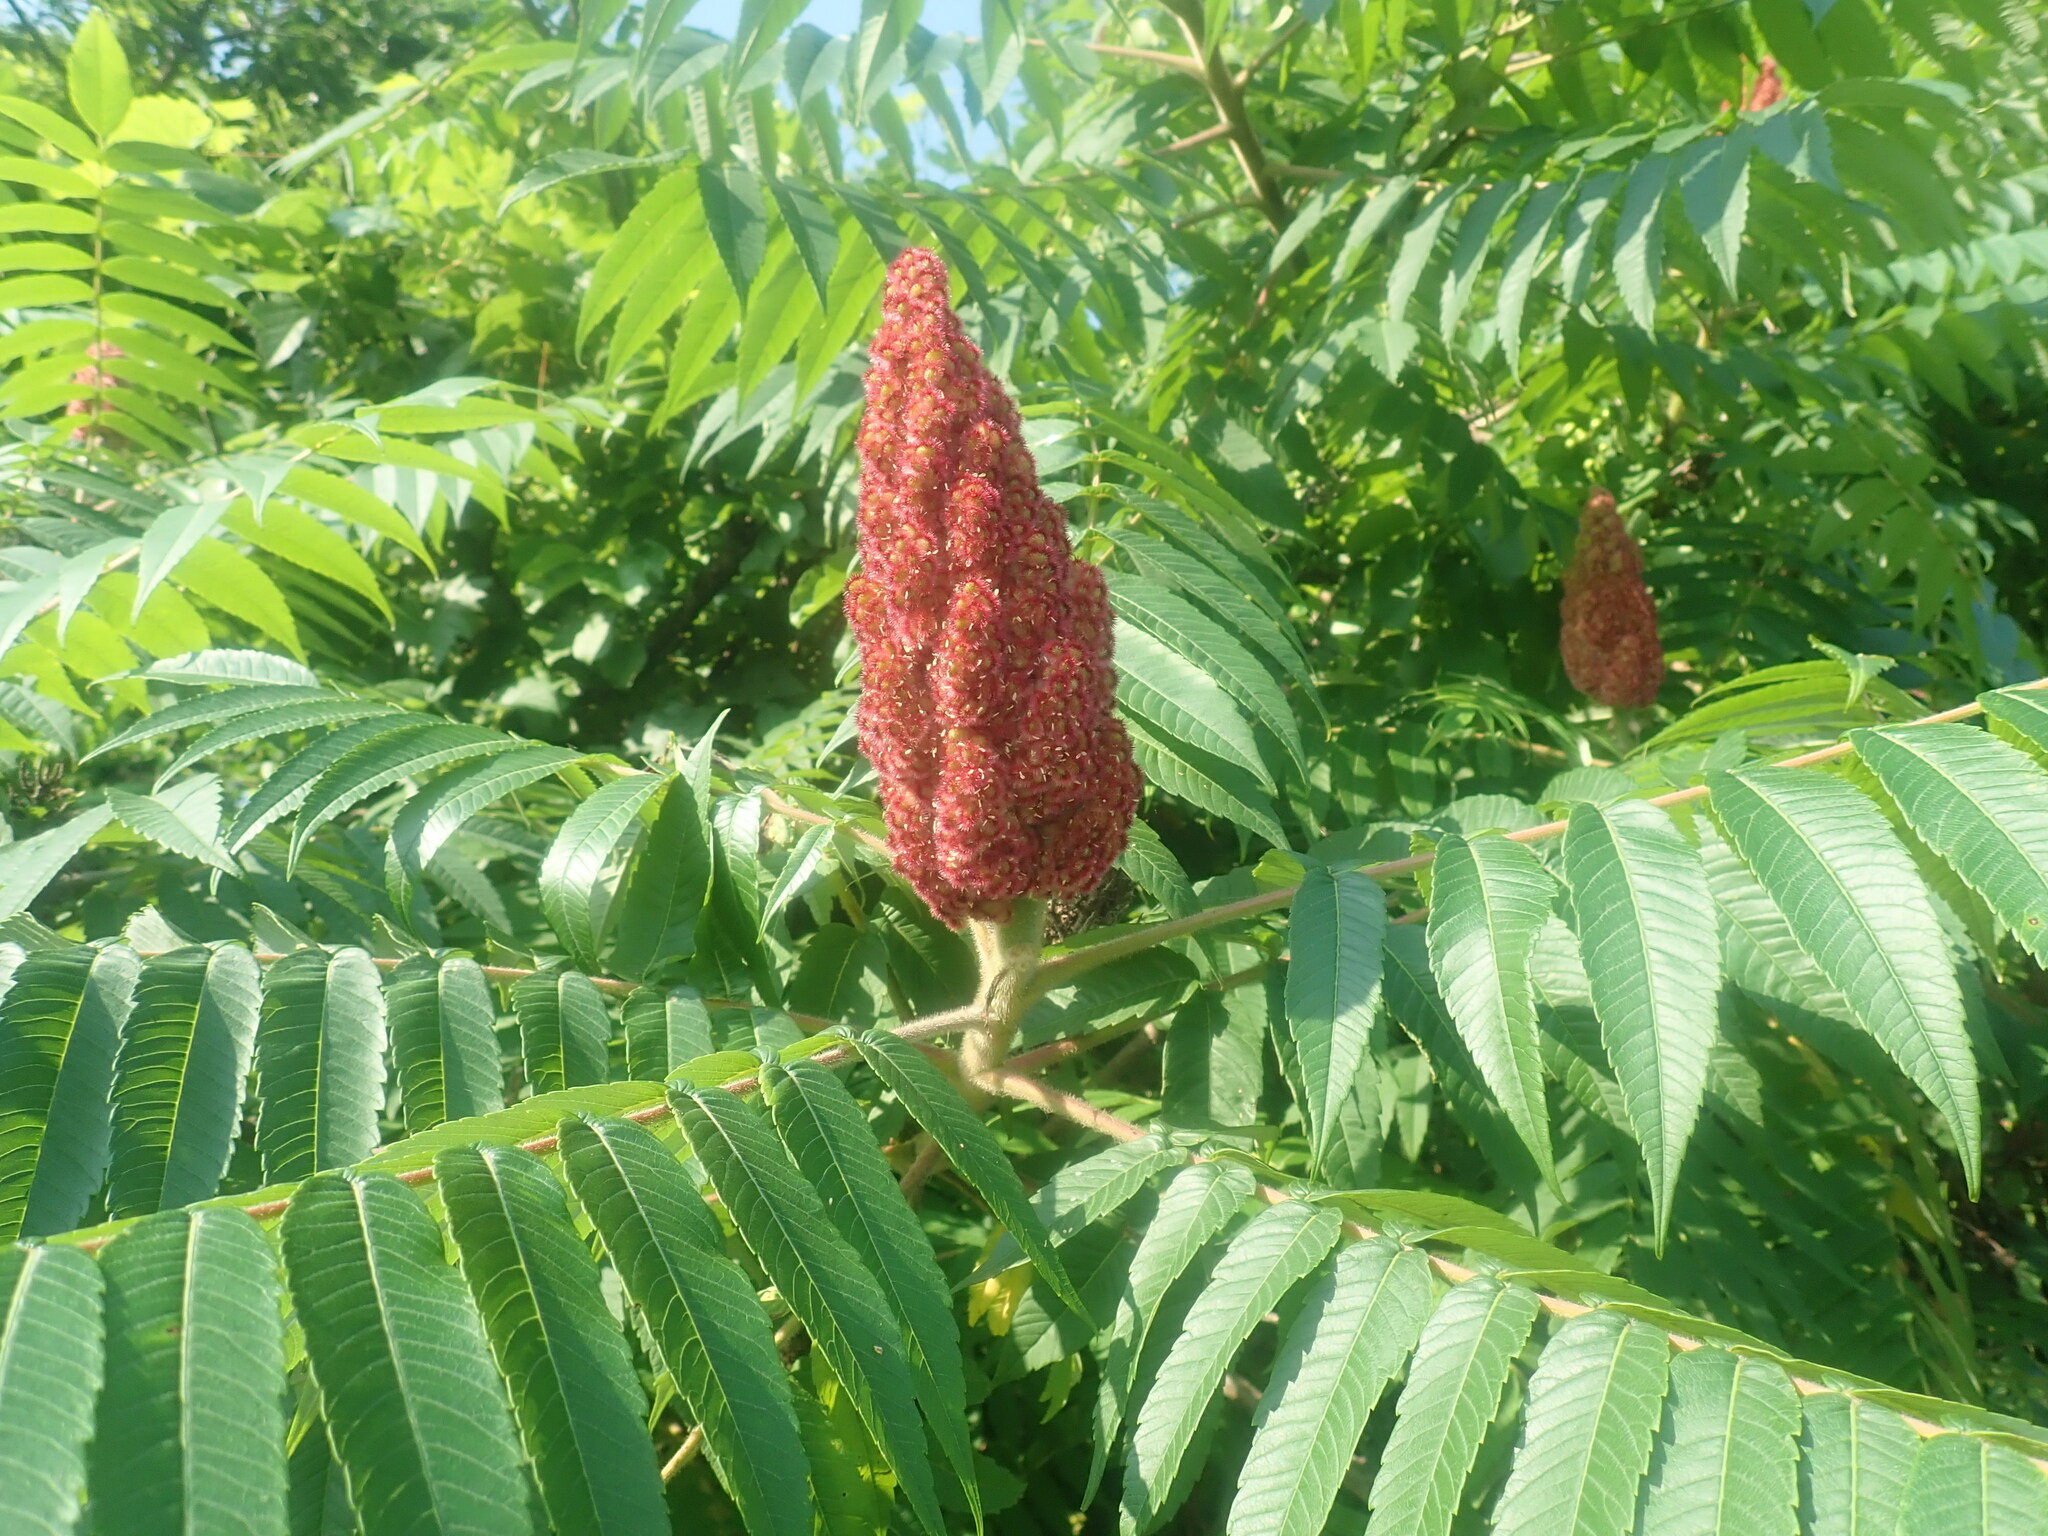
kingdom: Plantae
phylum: Tracheophyta
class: Magnoliopsida
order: Sapindales
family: Anacardiaceae
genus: Rhus
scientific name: Rhus typhina
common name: Staghorn sumac
